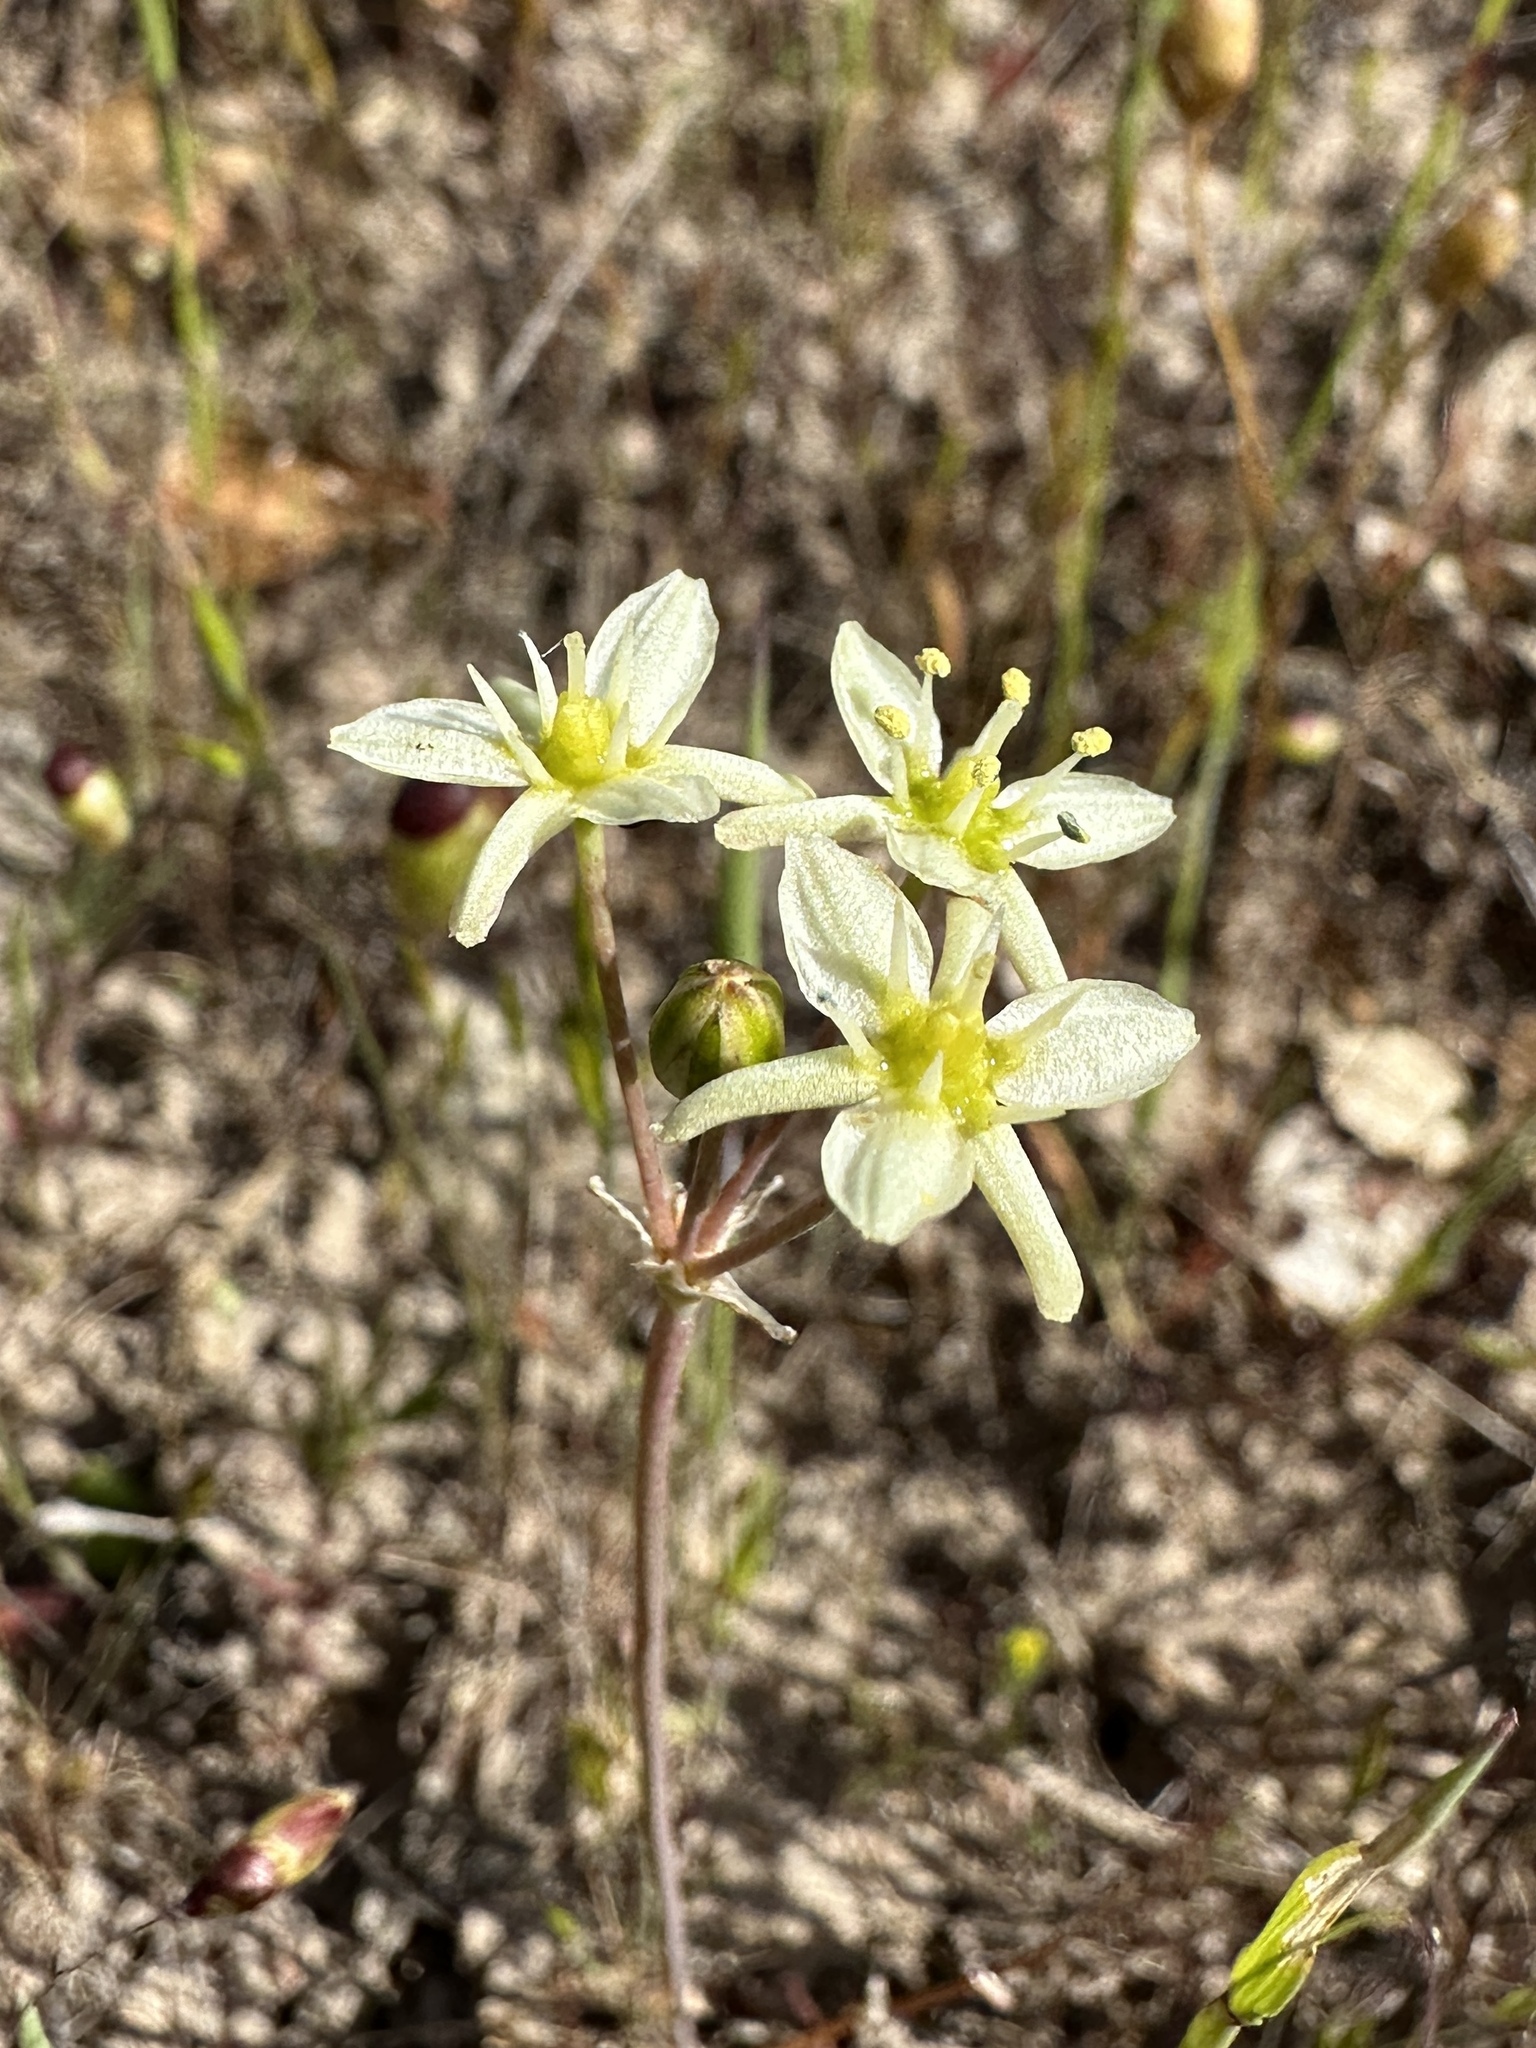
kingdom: Plantae
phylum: Tracheophyta
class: Liliopsida
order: Asparagales
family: Asparagaceae
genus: Muilla
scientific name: Muilla maritima
